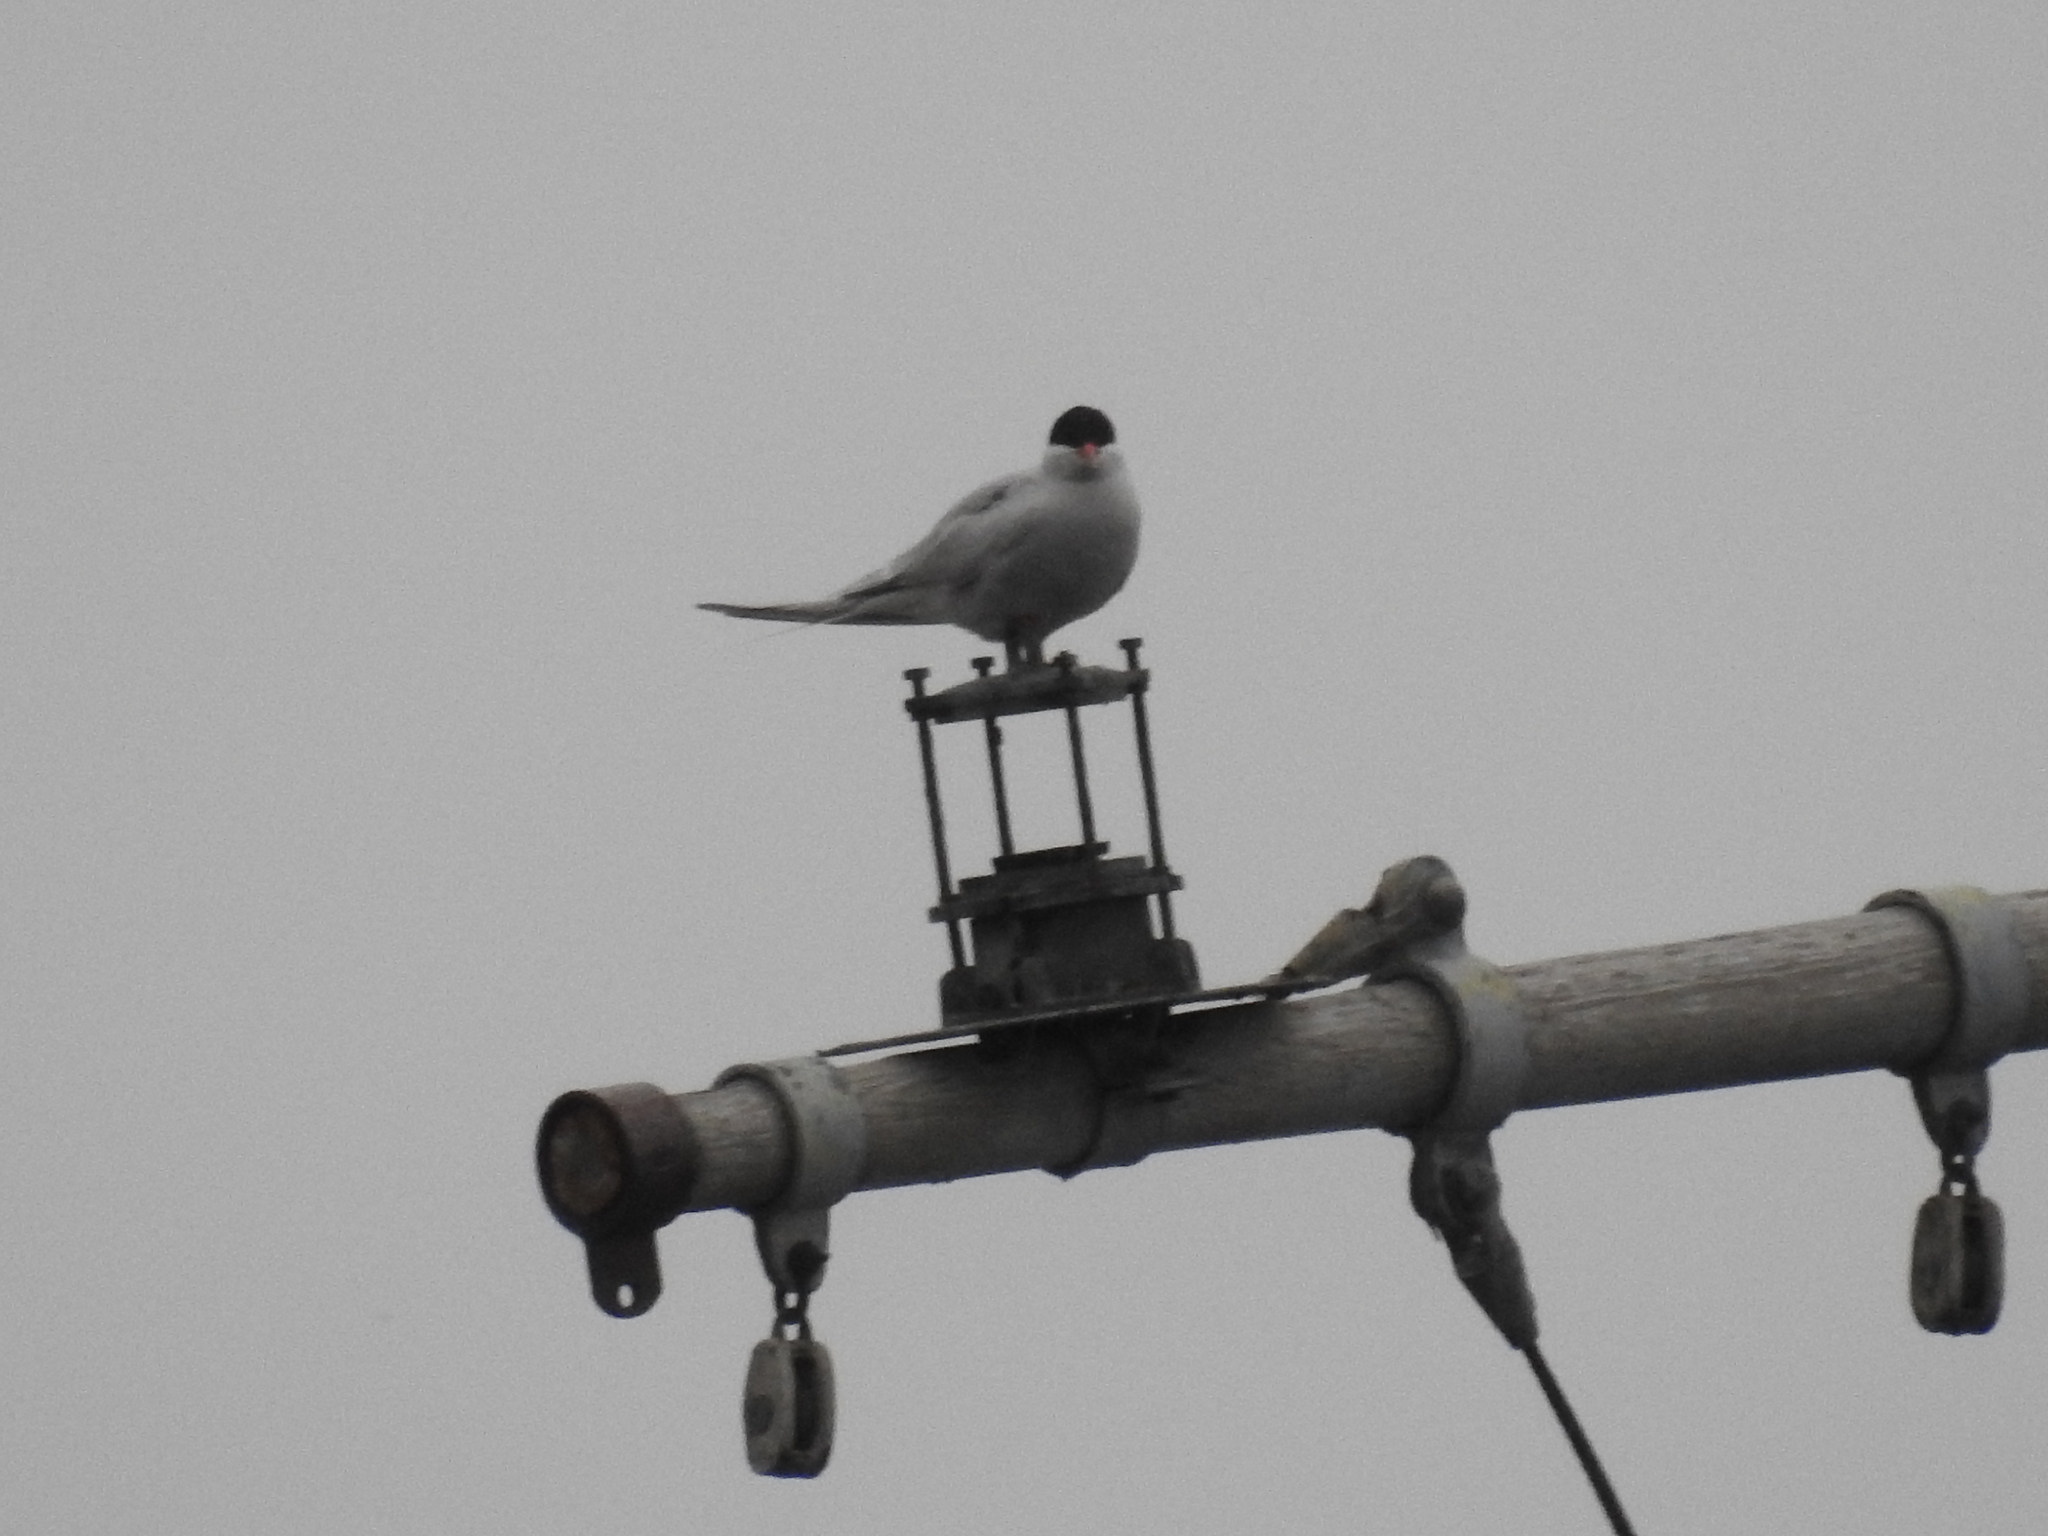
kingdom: Animalia
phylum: Chordata
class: Aves
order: Charadriiformes
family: Laridae
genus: Sterna
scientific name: Sterna hirundinacea
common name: South american tern
